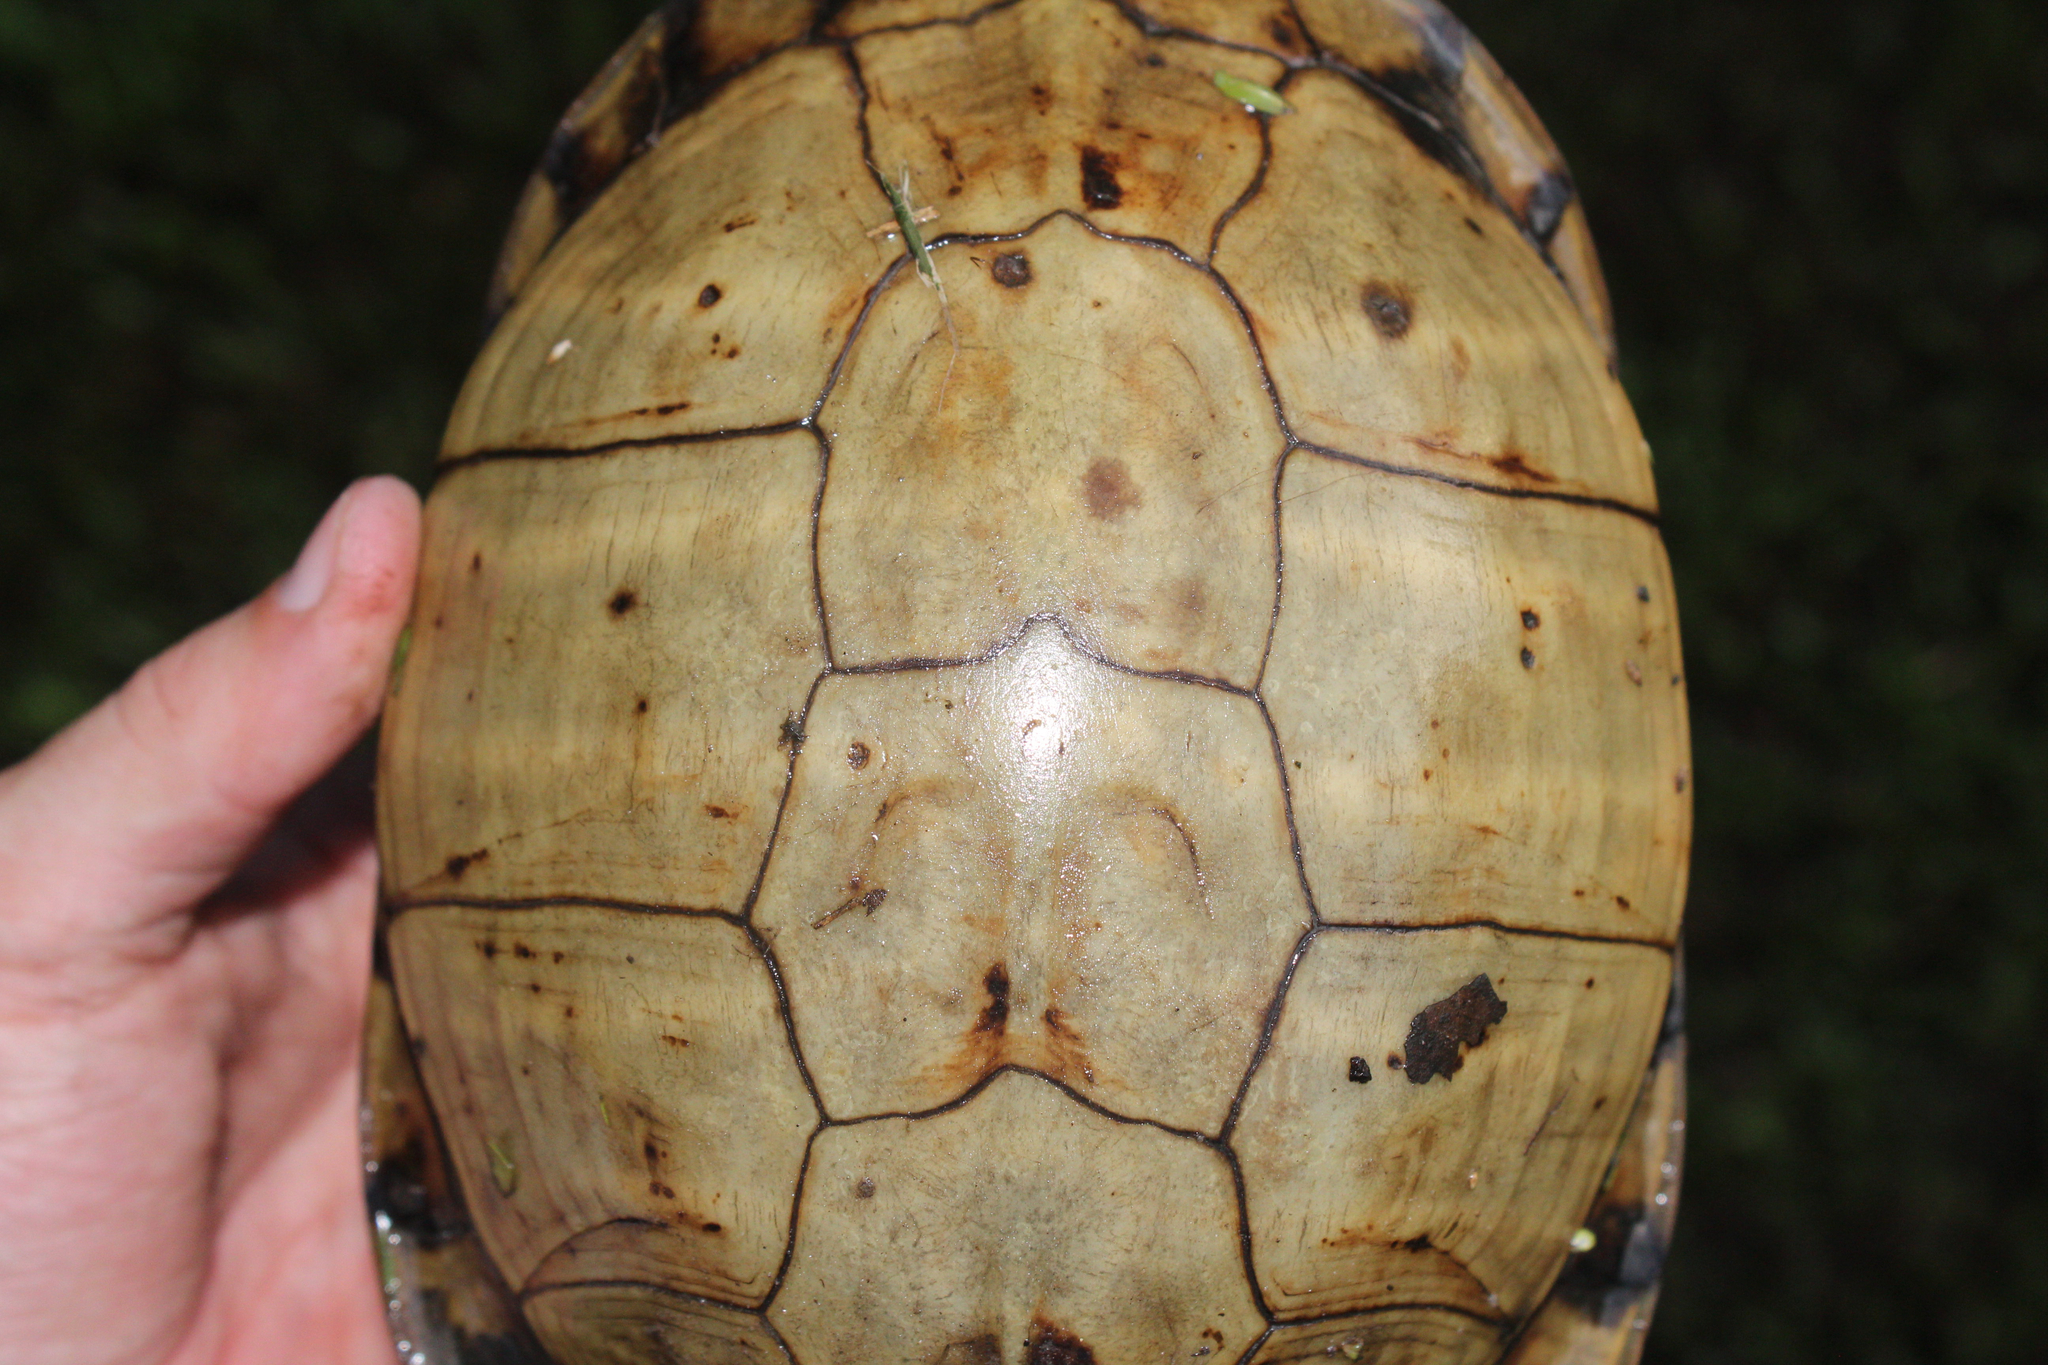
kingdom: Animalia
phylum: Chordata
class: Testudines
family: Emydidae
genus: Terrapene
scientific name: Terrapene carolina
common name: Common box turtle
